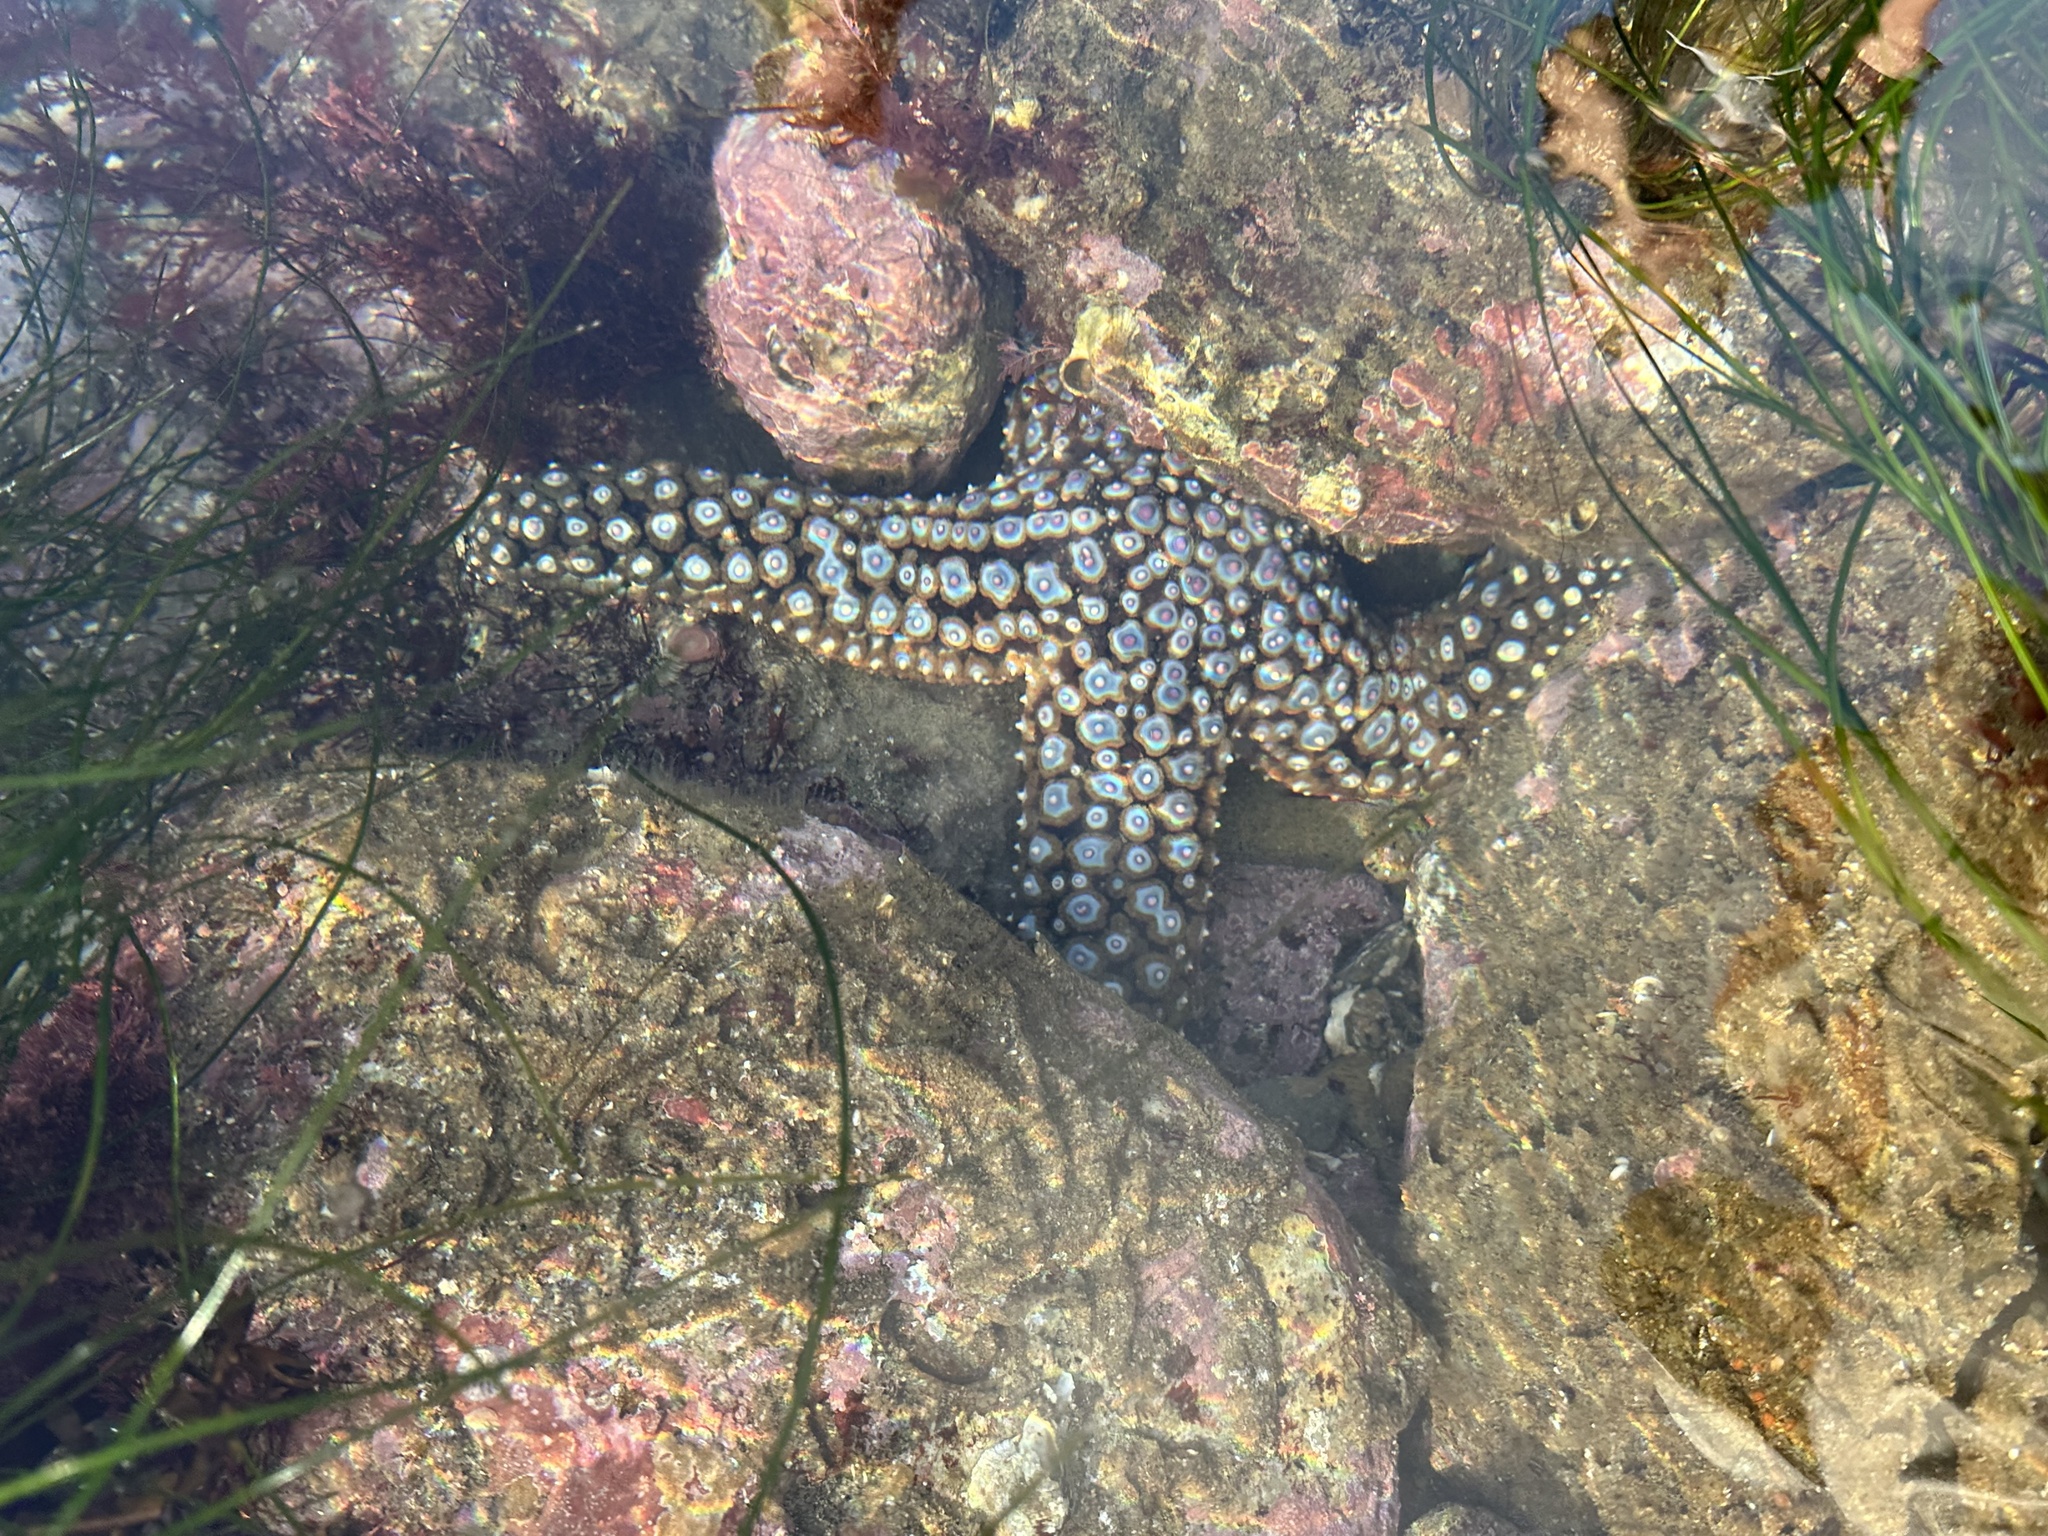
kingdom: Animalia
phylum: Echinodermata
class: Asteroidea
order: Forcipulatida
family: Asteriidae
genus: Pisaster
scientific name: Pisaster giganteus
